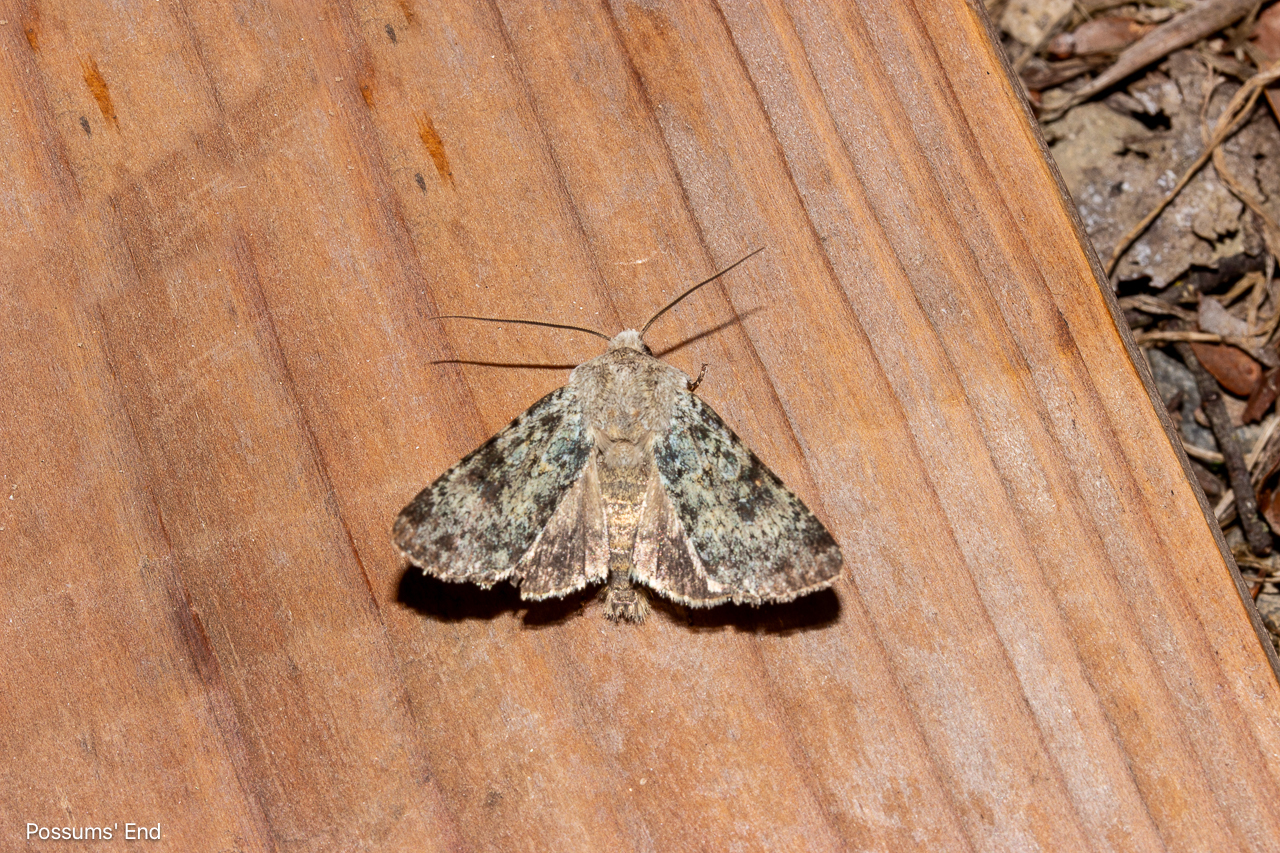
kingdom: Animalia
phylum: Arthropoda
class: Insecta
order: Lepidoptera
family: Noctuidae
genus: Ichneutica
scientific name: Ichneutica cuneata
